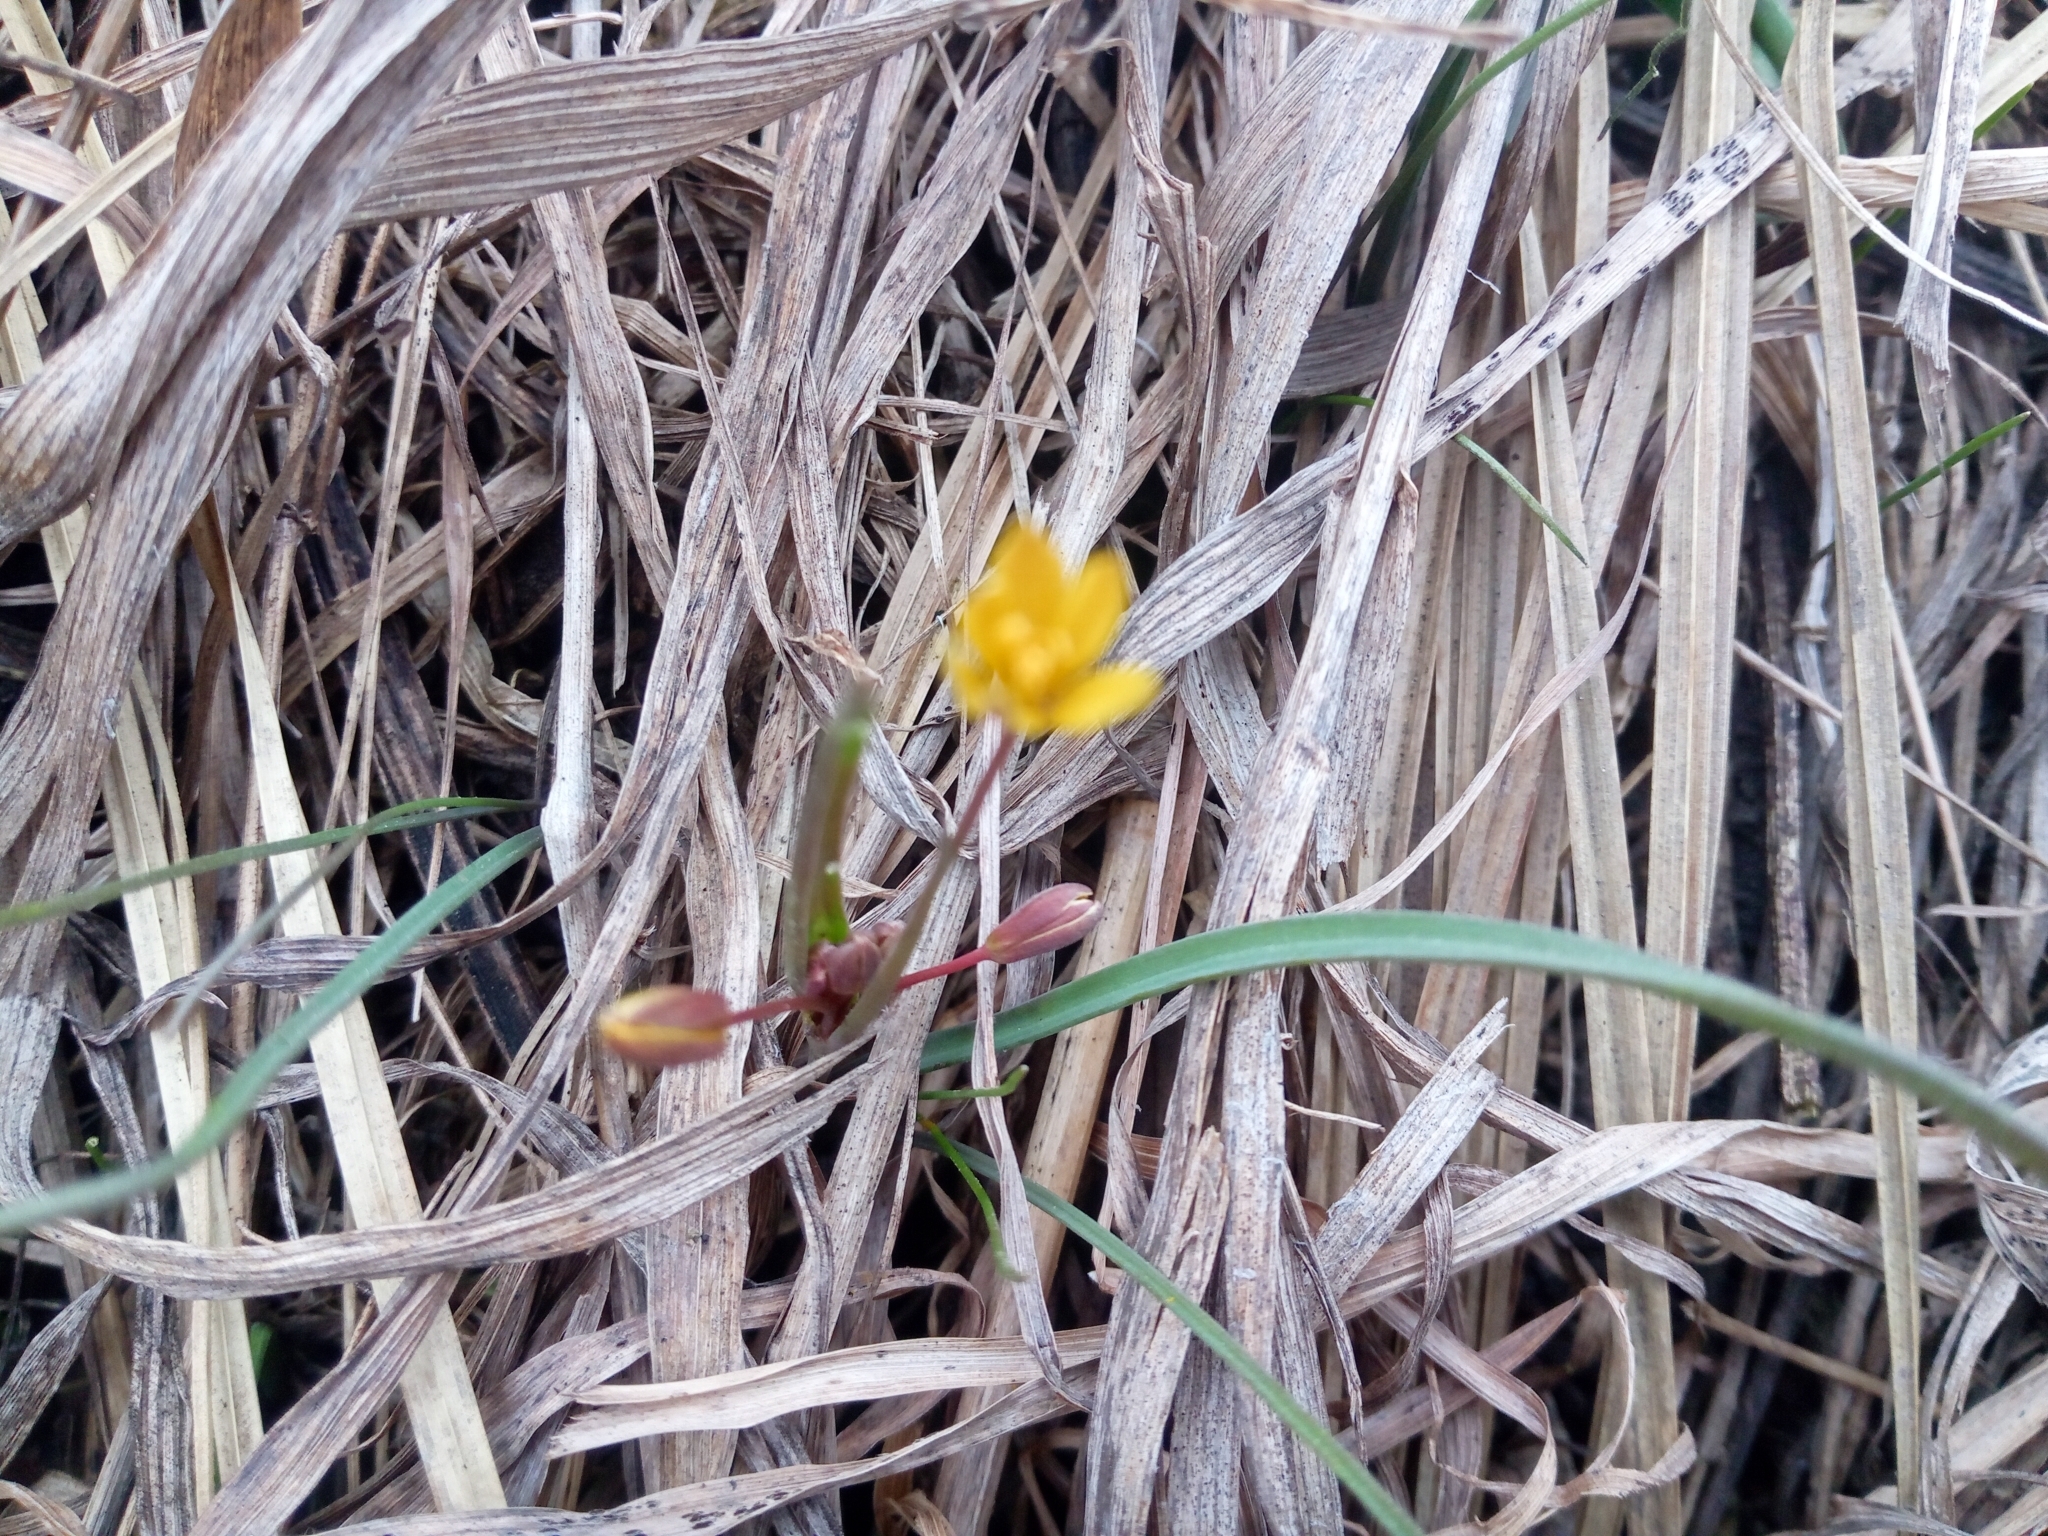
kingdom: Plantae
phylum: Tracheophyta
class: Liliopsida
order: Liliales
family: Liliaceae
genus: Gagea
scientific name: Gagea fragifera
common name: Lily
